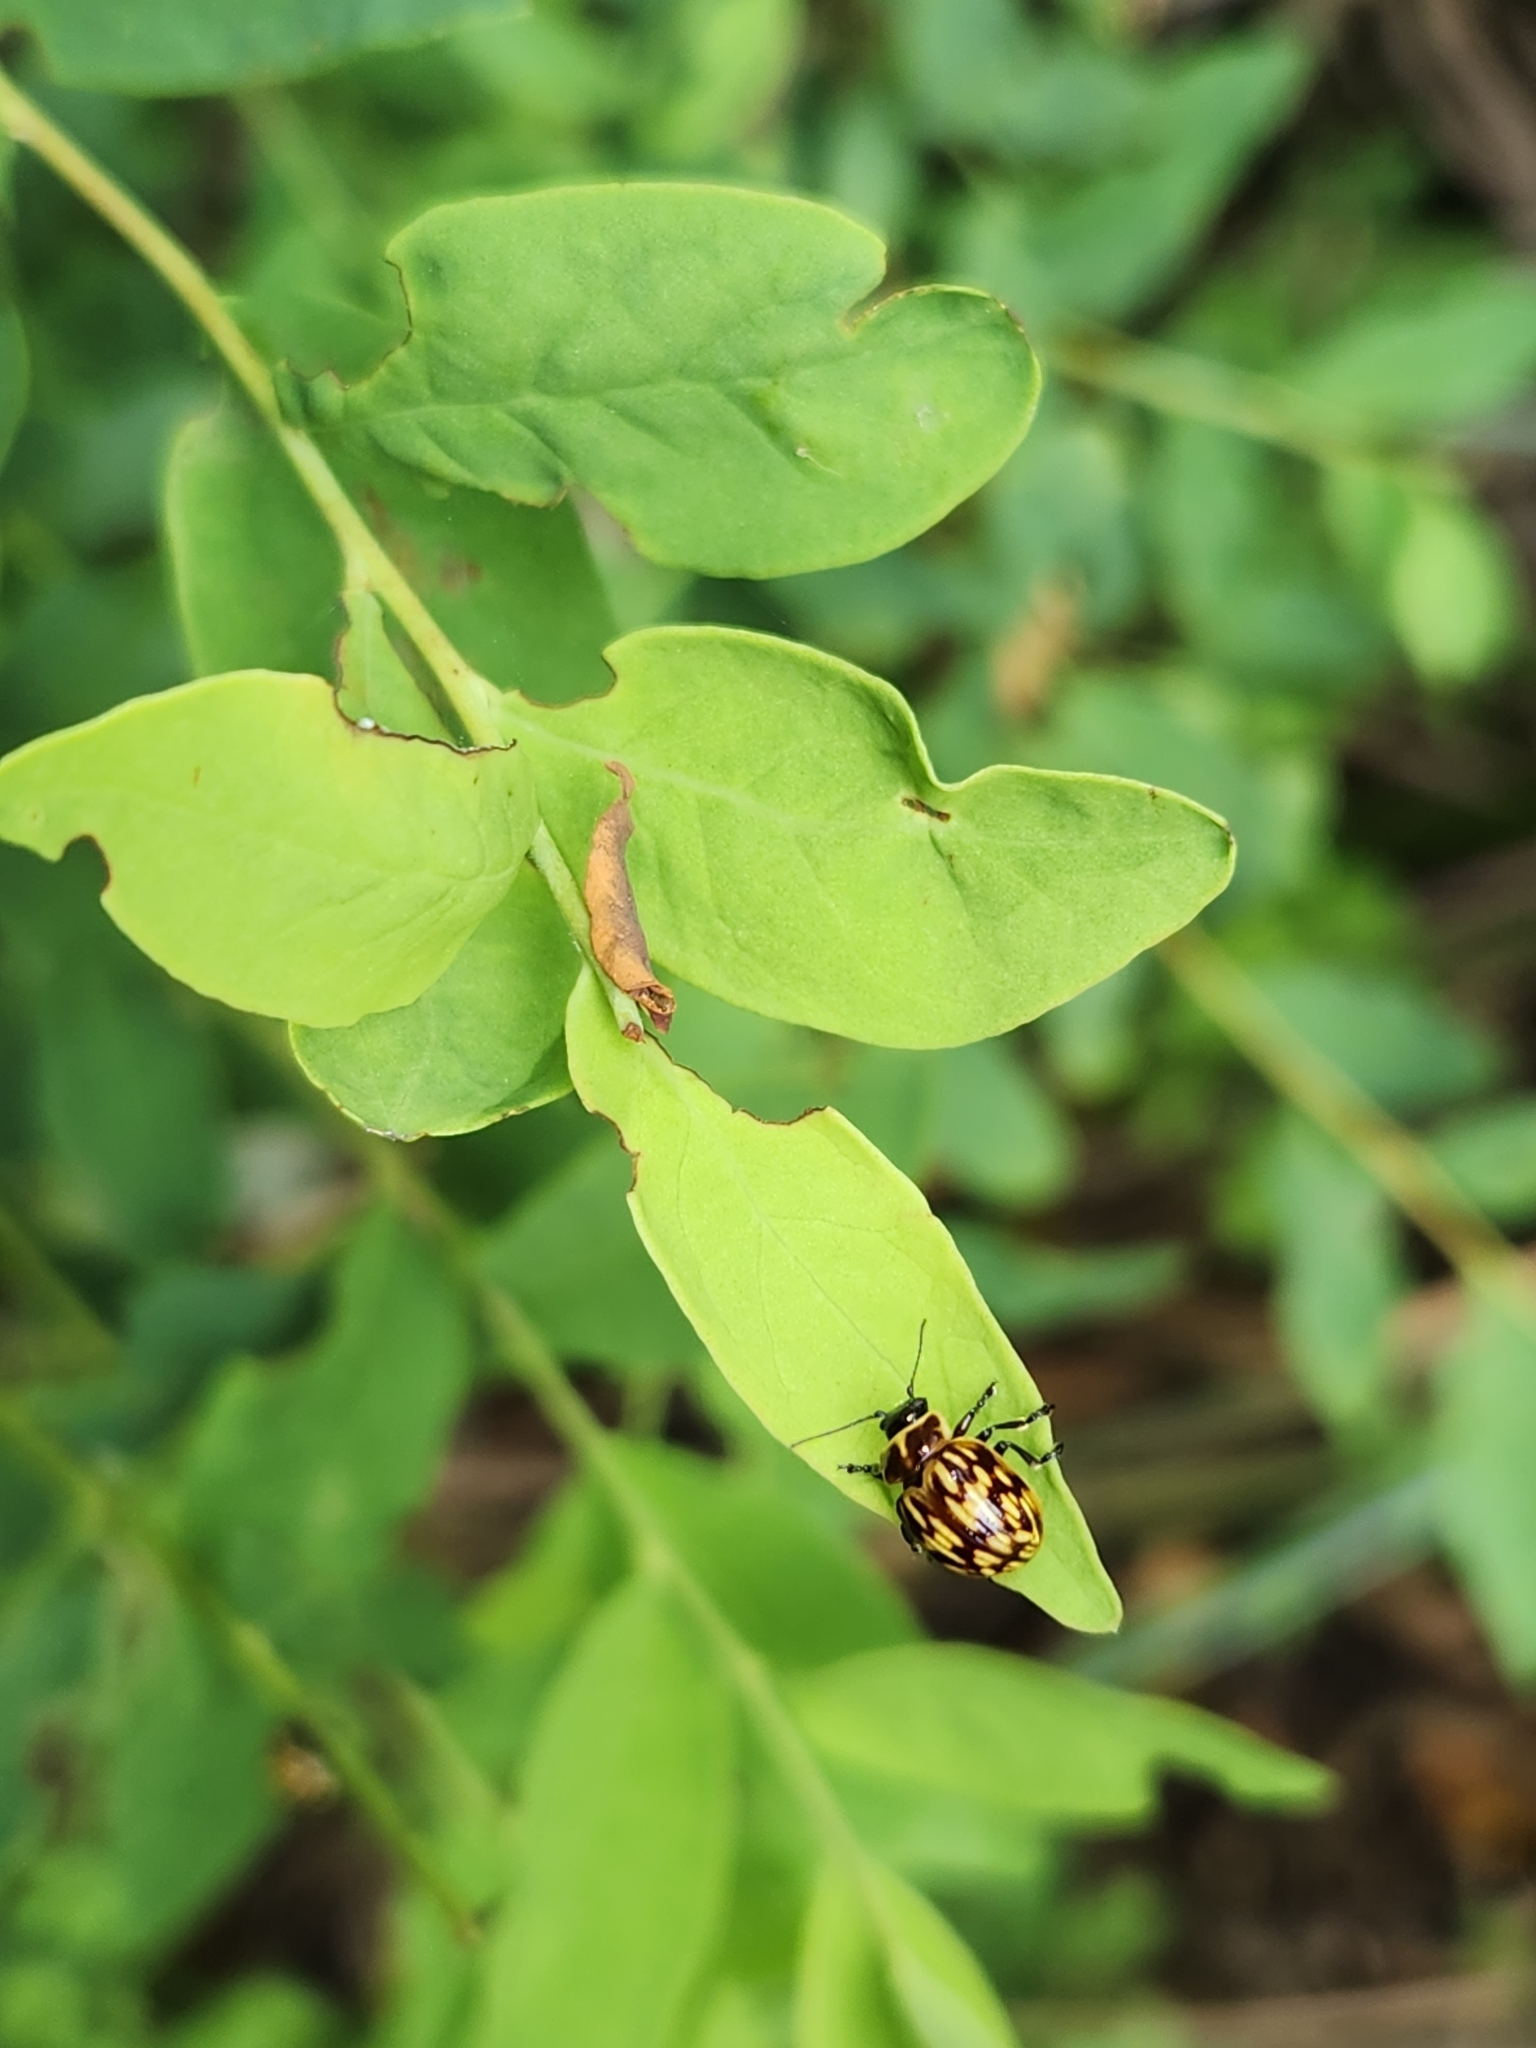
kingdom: Animalia
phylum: Arthropoda
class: Insecta
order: Coleoptera
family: Chrysomelidae
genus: Strichosa
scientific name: Strichosa
